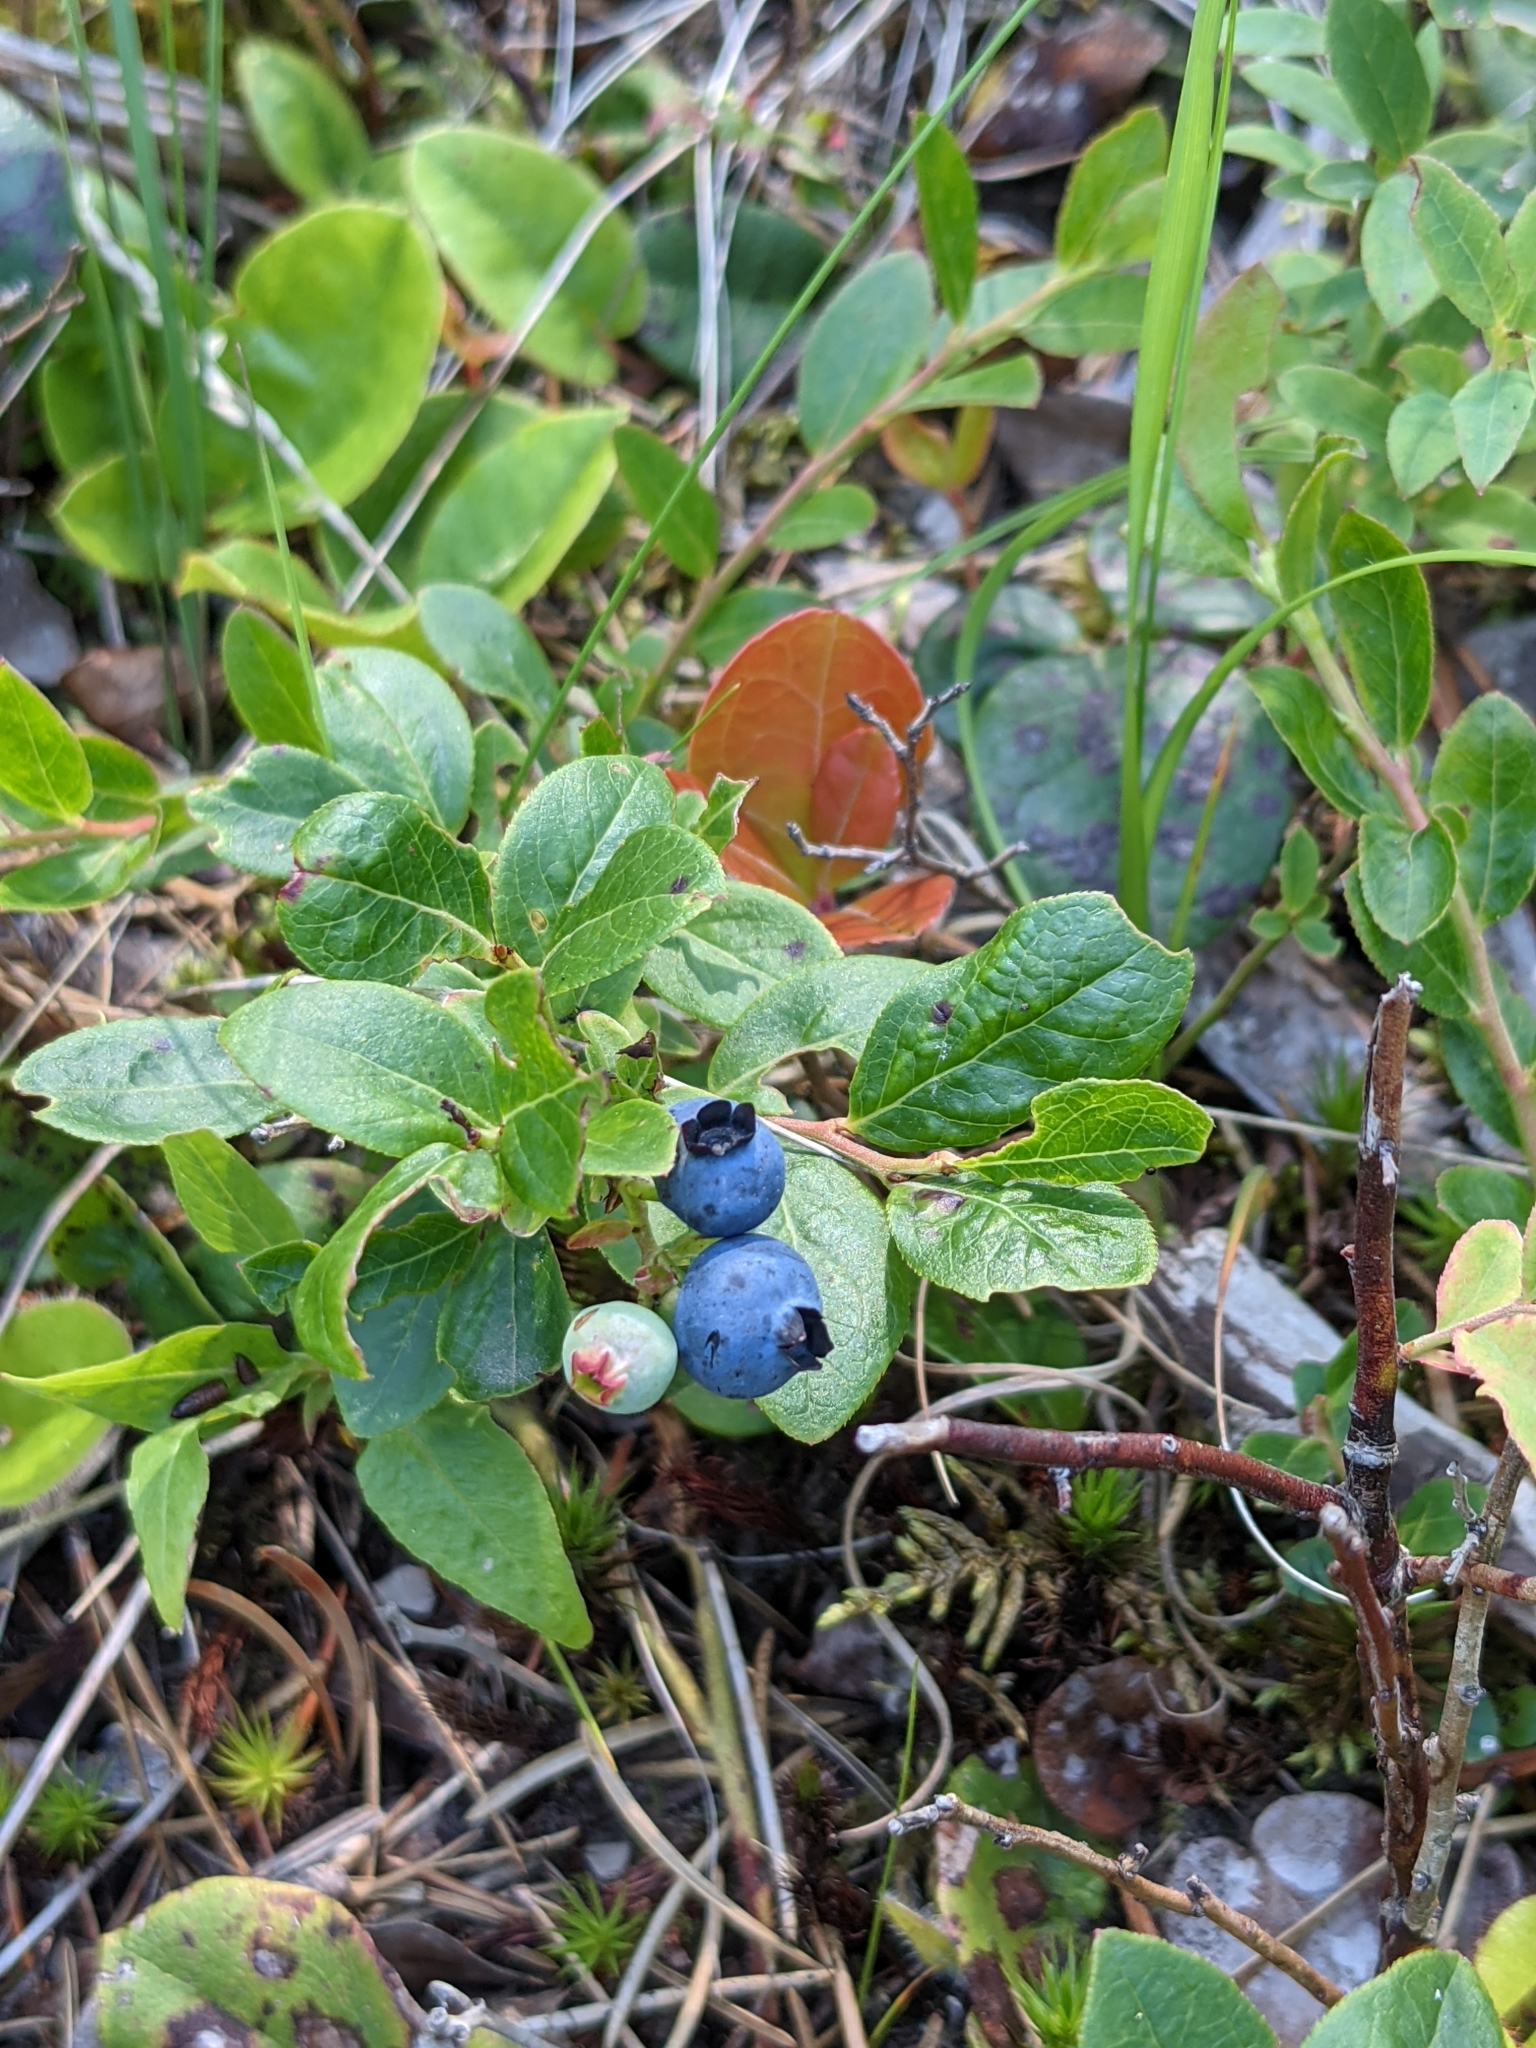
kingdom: Plantae
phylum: Tracheophyta
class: Magnoliopsida
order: Ericales
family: Ericaceae
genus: Vaccinium
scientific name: Vaccinium angustifolium
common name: Early lowbush blueberry
